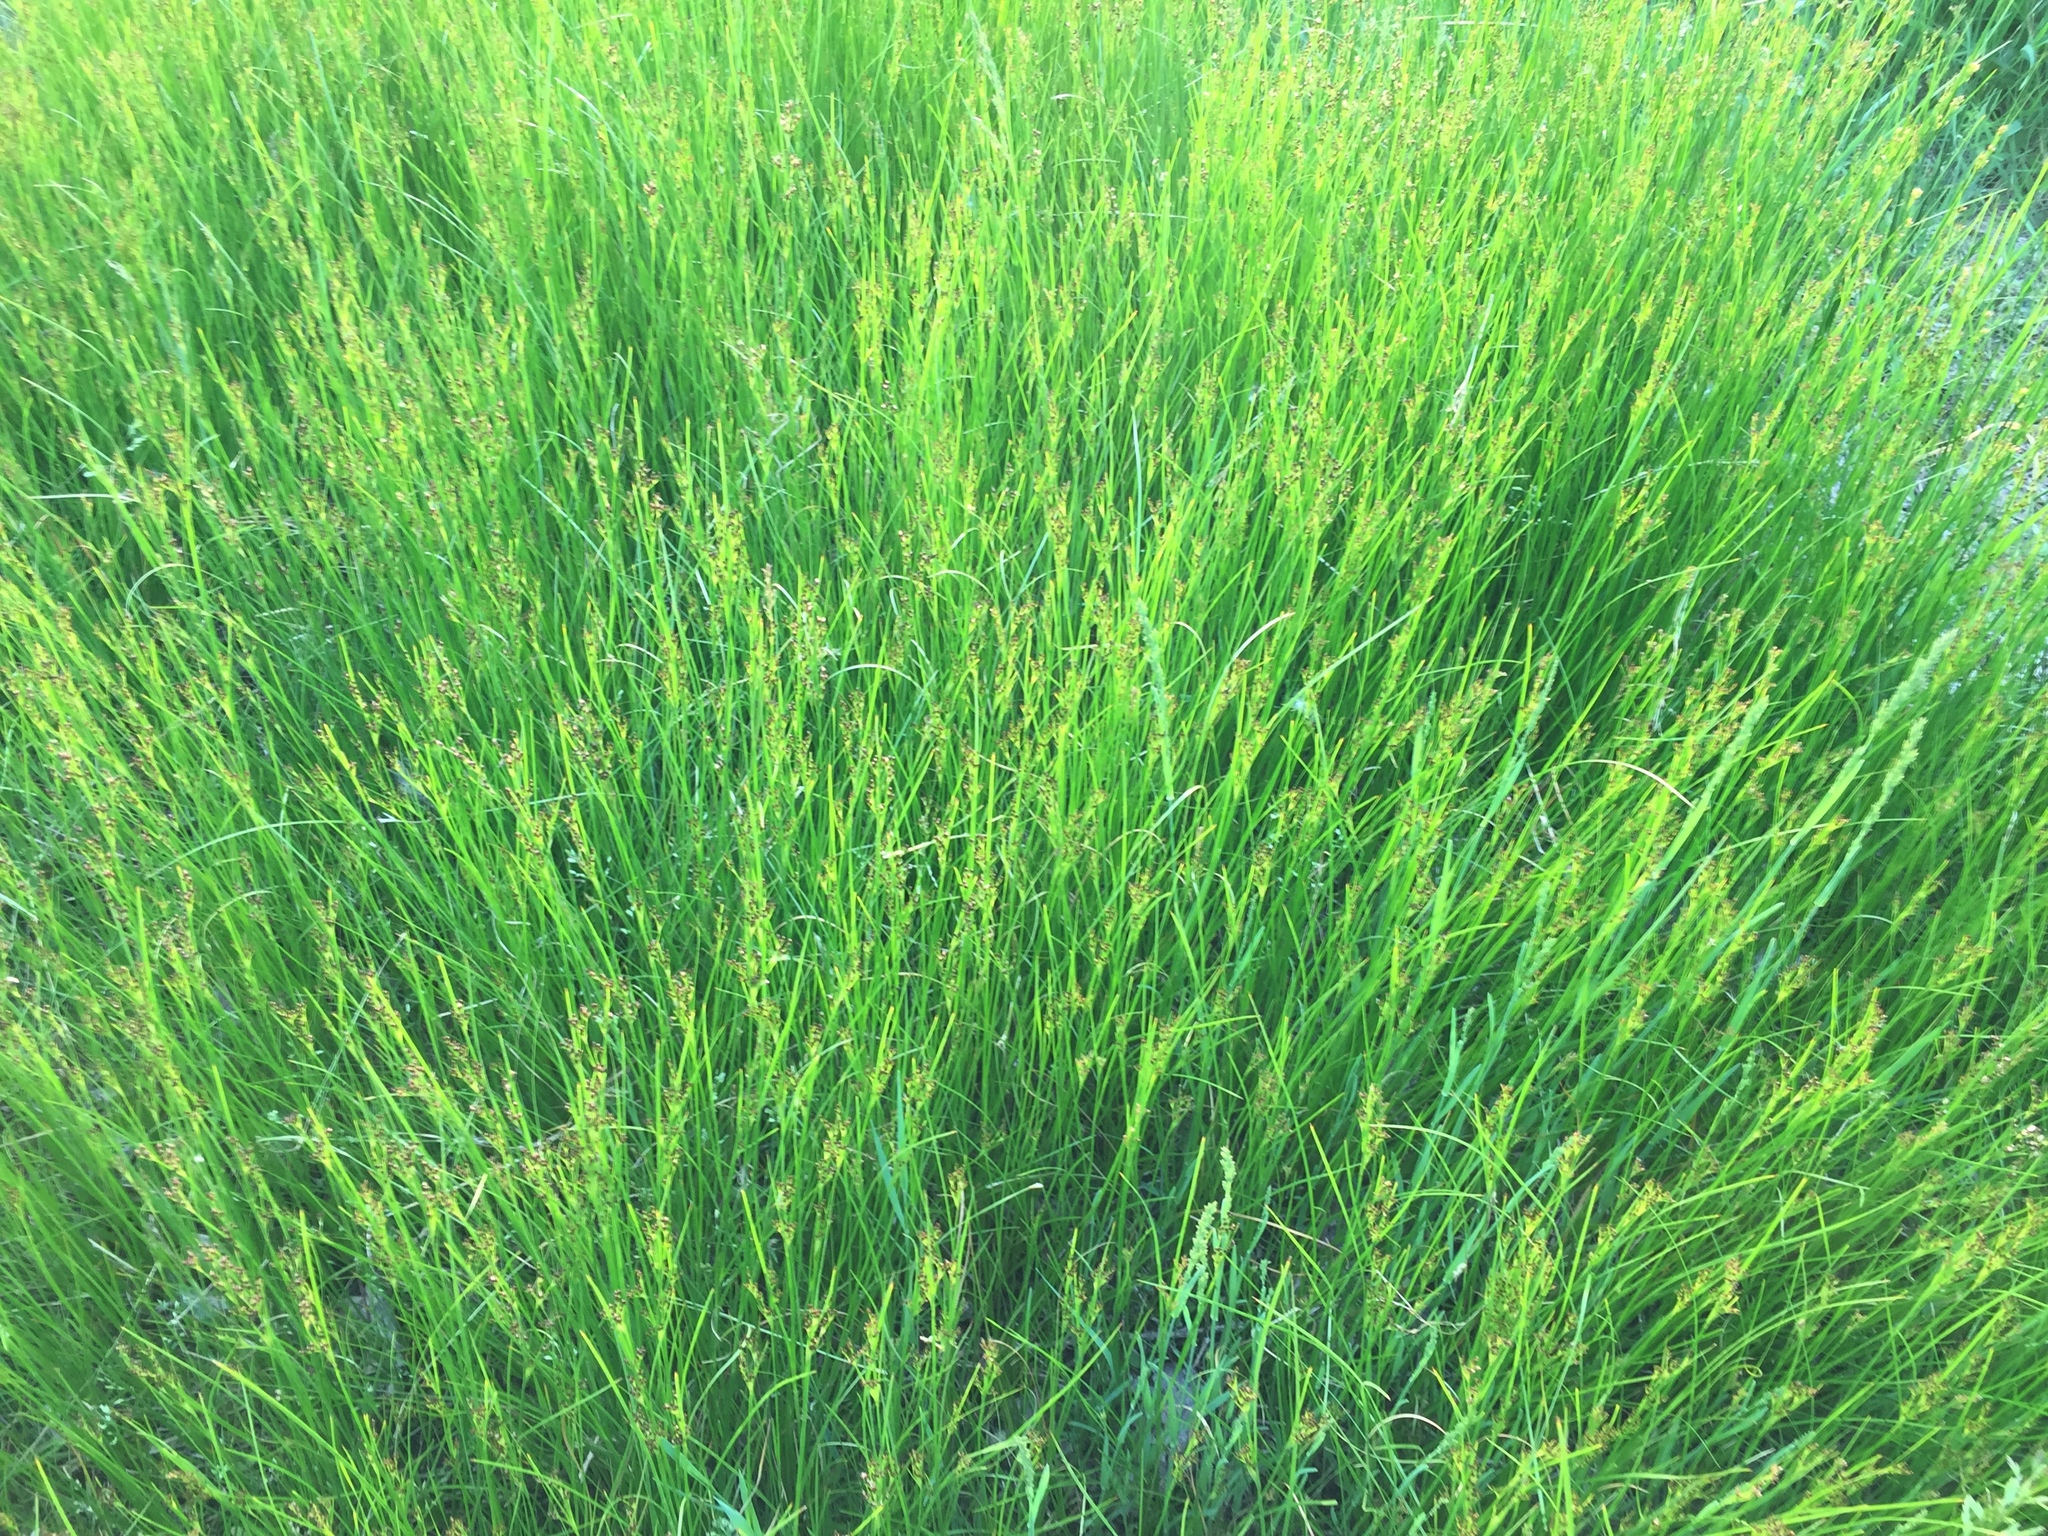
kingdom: Plantae
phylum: Tracheophyta
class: Liliopsida
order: Poales
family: Juncaceae
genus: Juncus
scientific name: Juncus tenuis
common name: Slender rush
